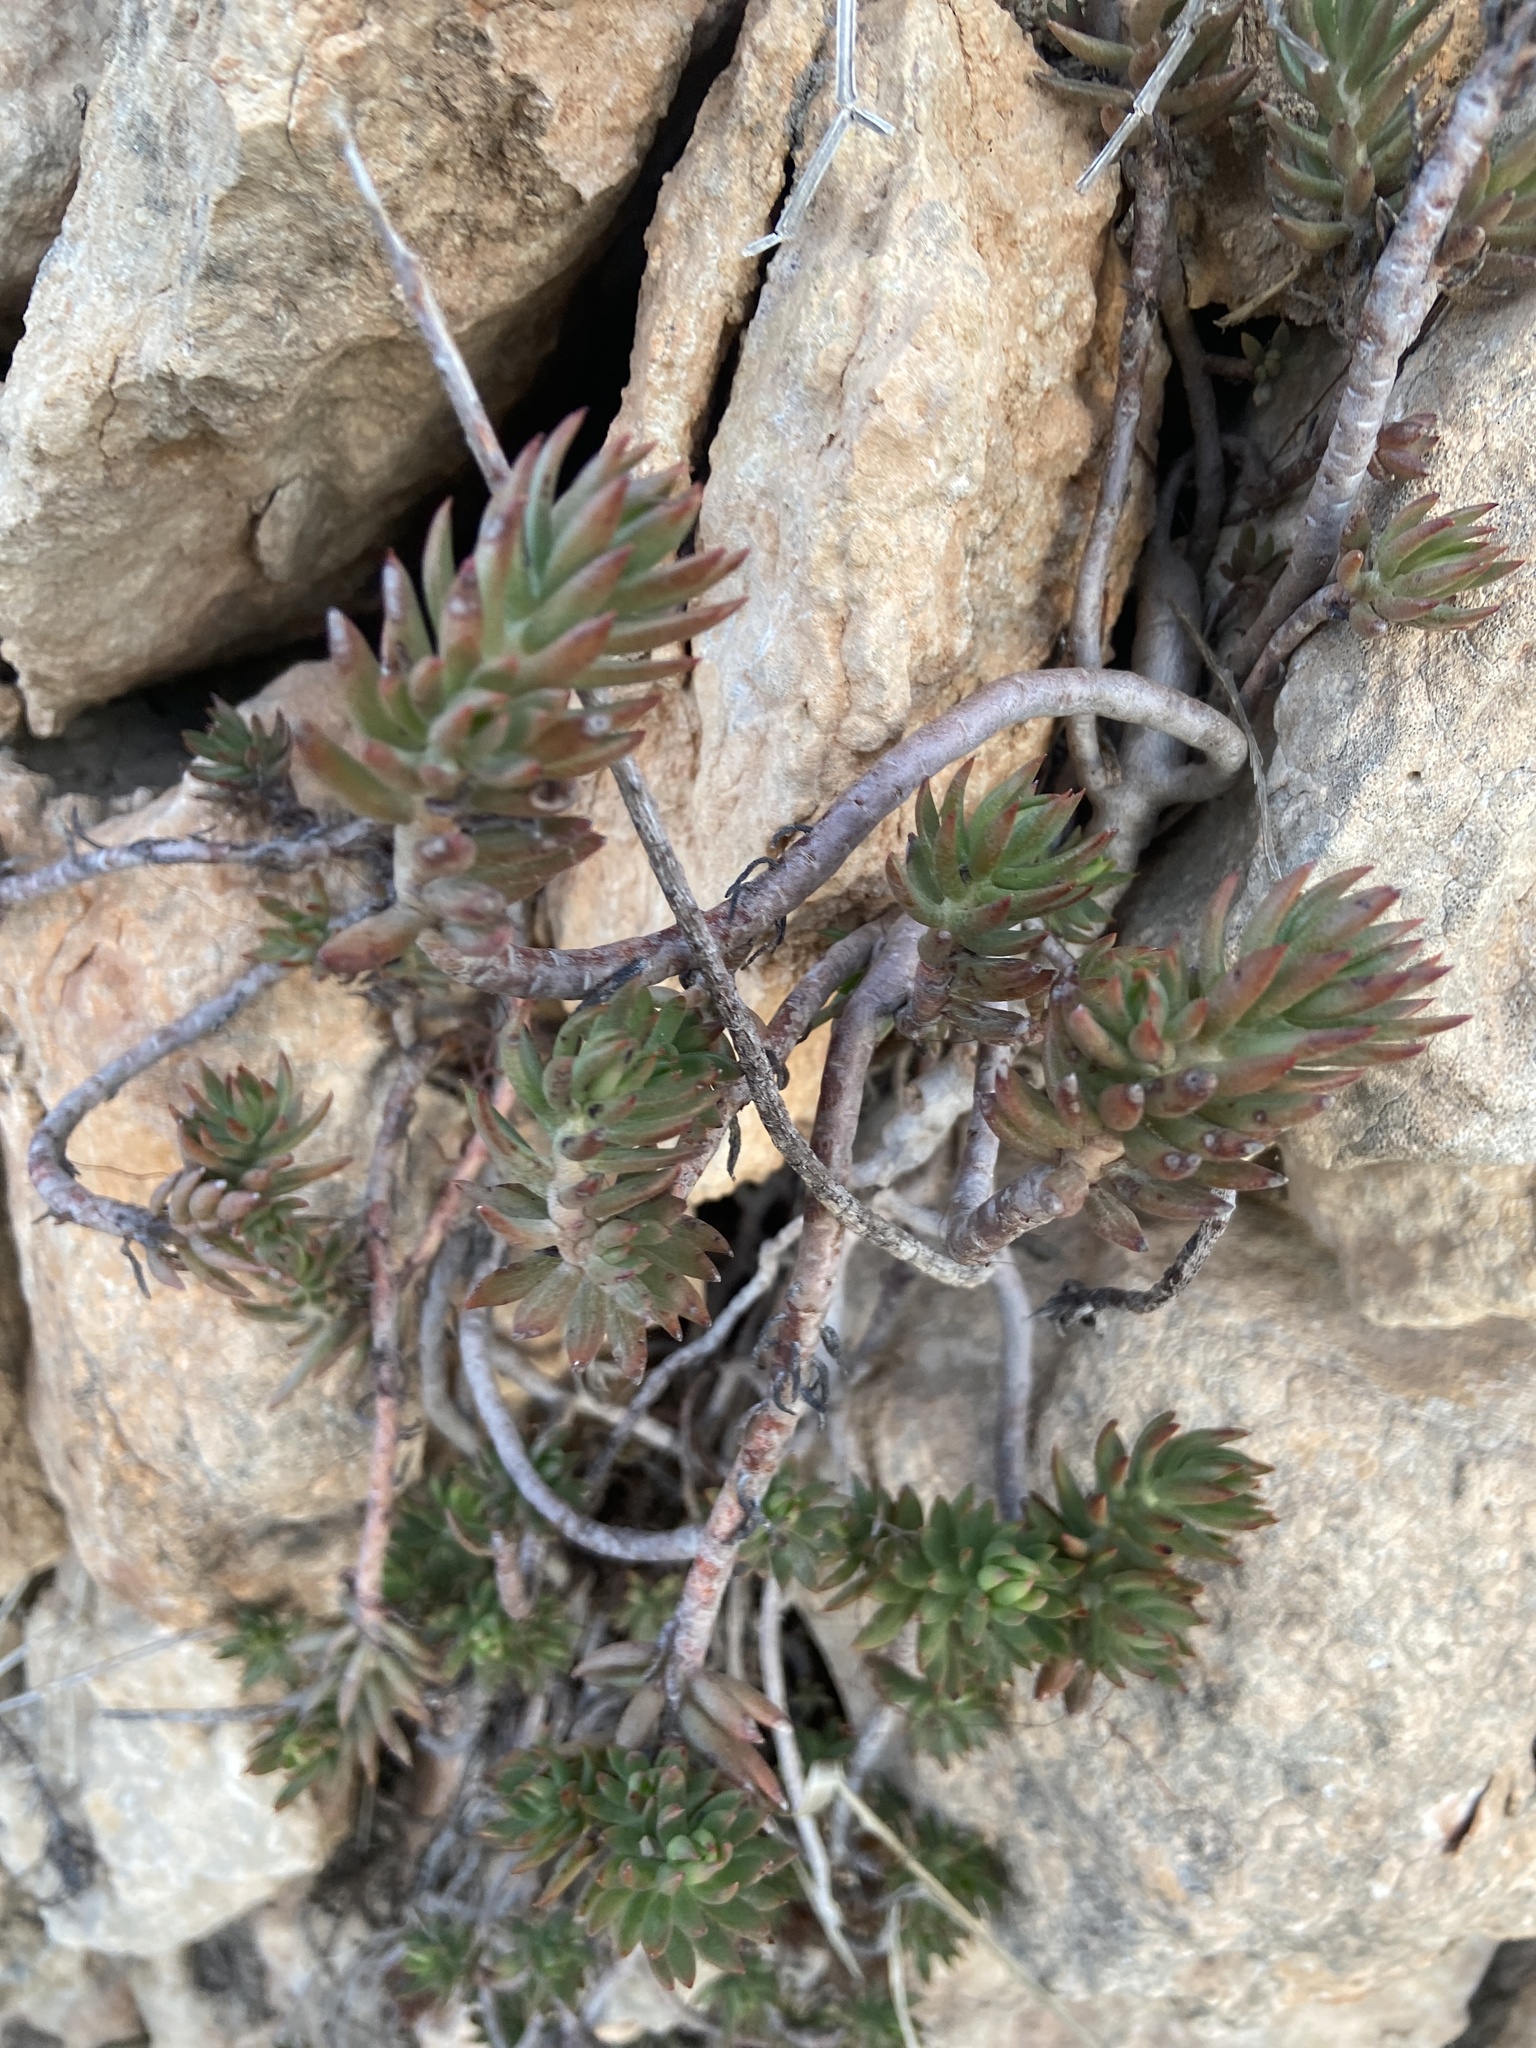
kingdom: Plantae
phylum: Tracheophyta
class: Magnoliopsida
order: Saxifragales
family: Crassulaceae
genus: Petrosedum
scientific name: Petrosedum sediforme
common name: Pale stonecrop
